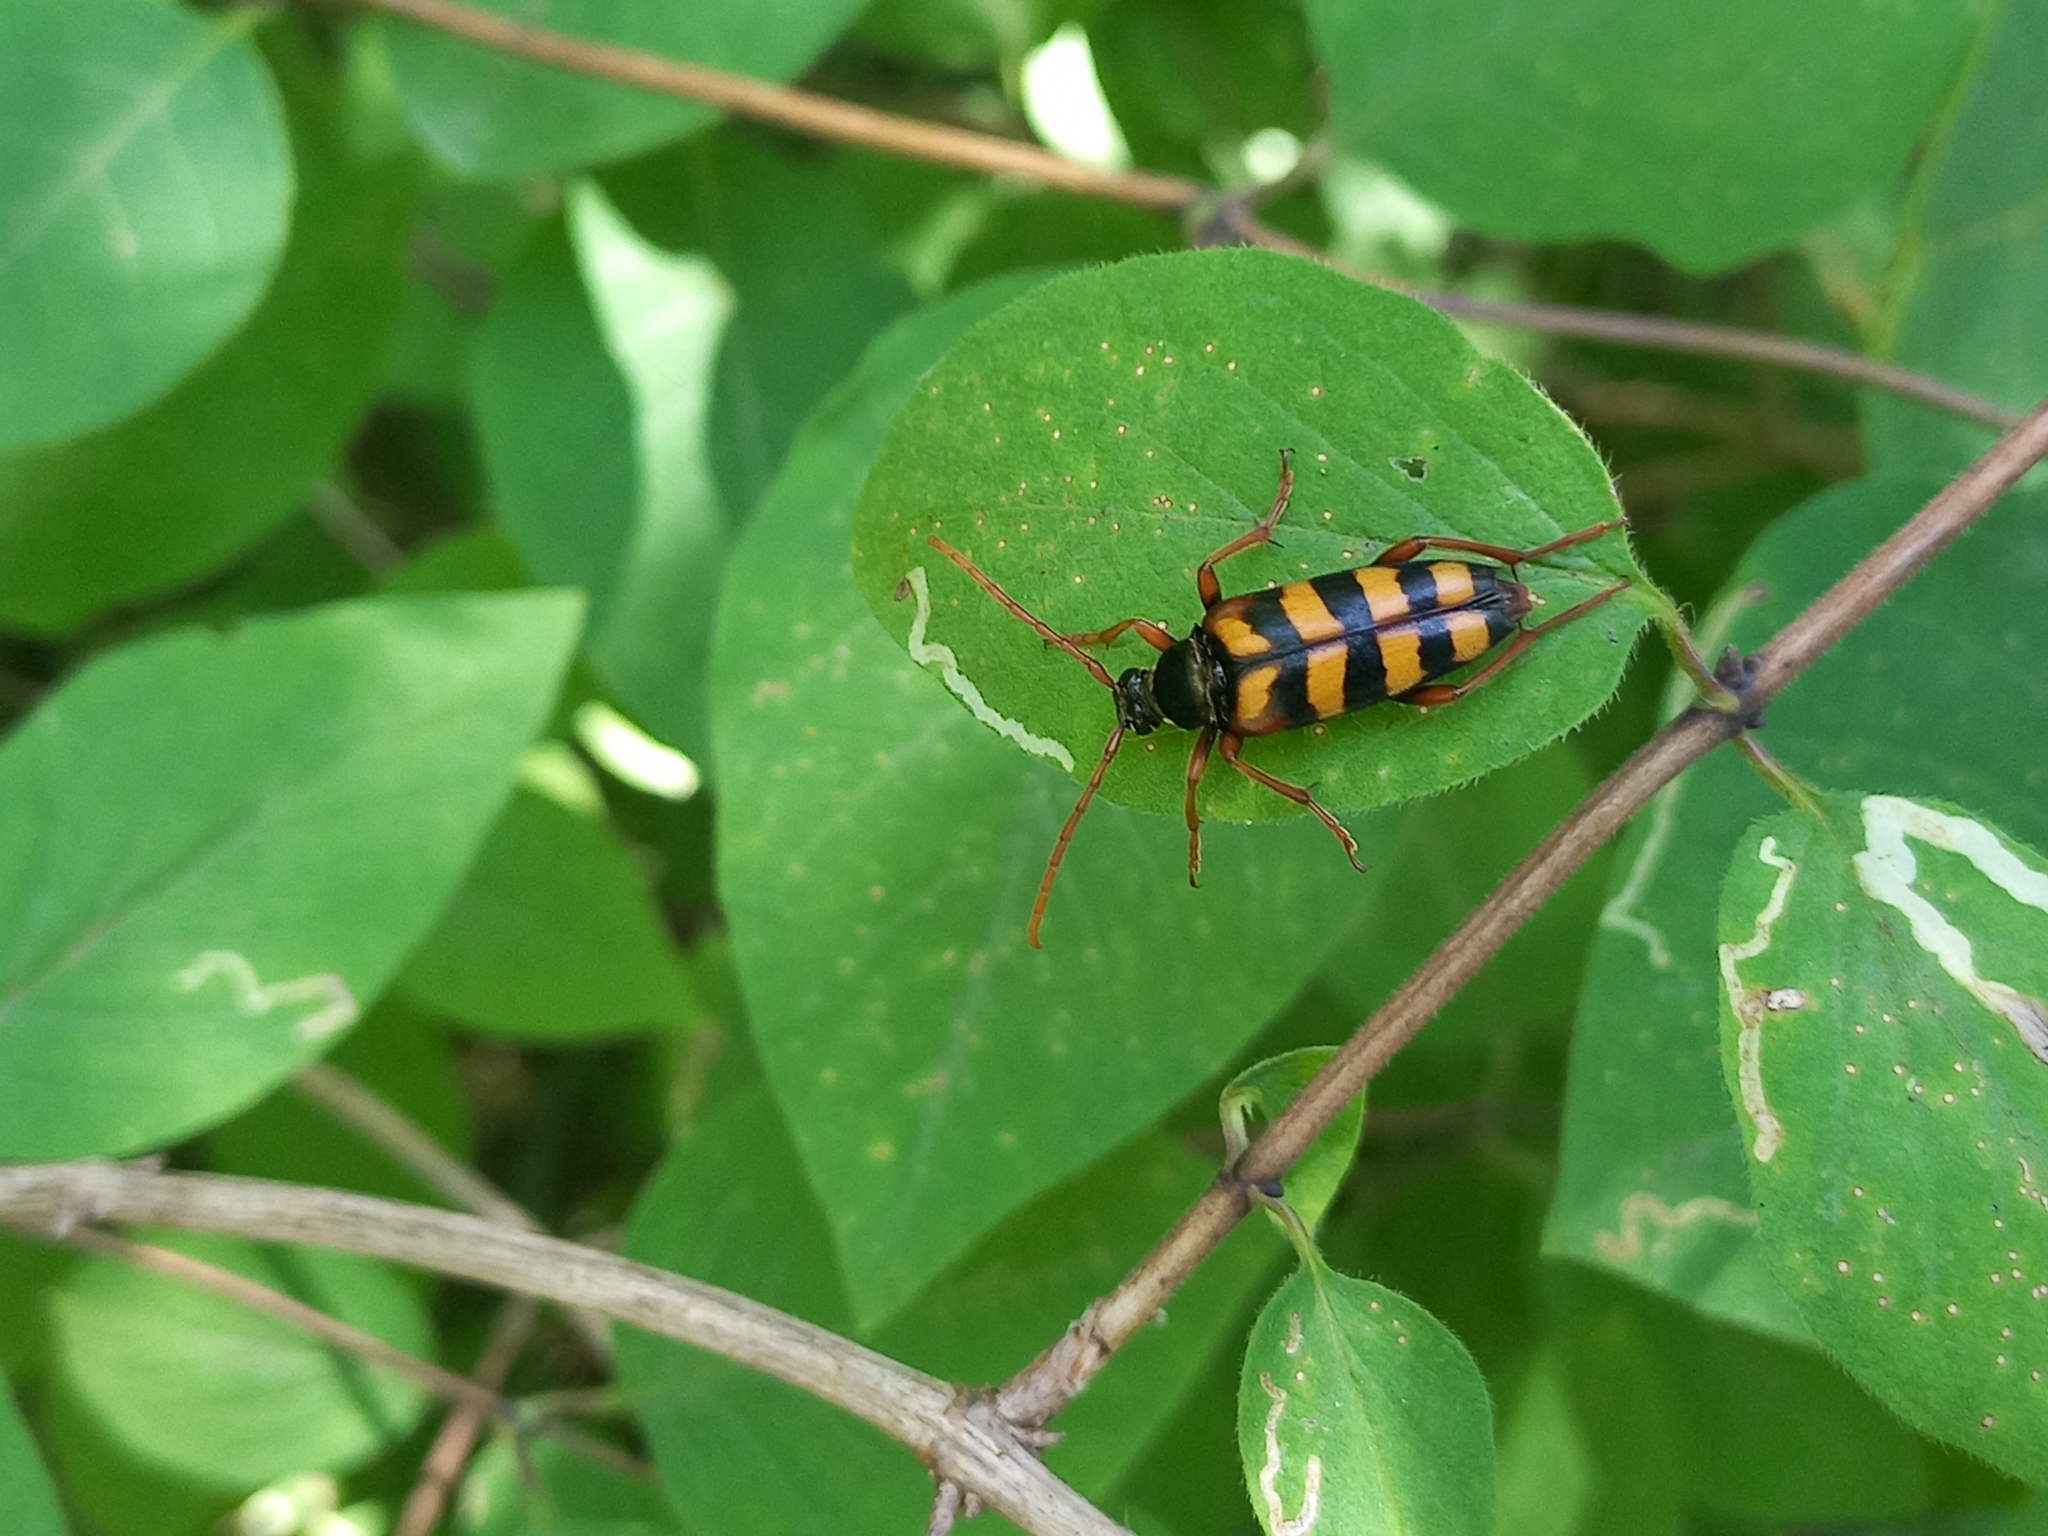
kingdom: Animalia
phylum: Arthropoda
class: Insecta
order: Coleoptera
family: Cerambycidae
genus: Leptura
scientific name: Leptura aurulenta
